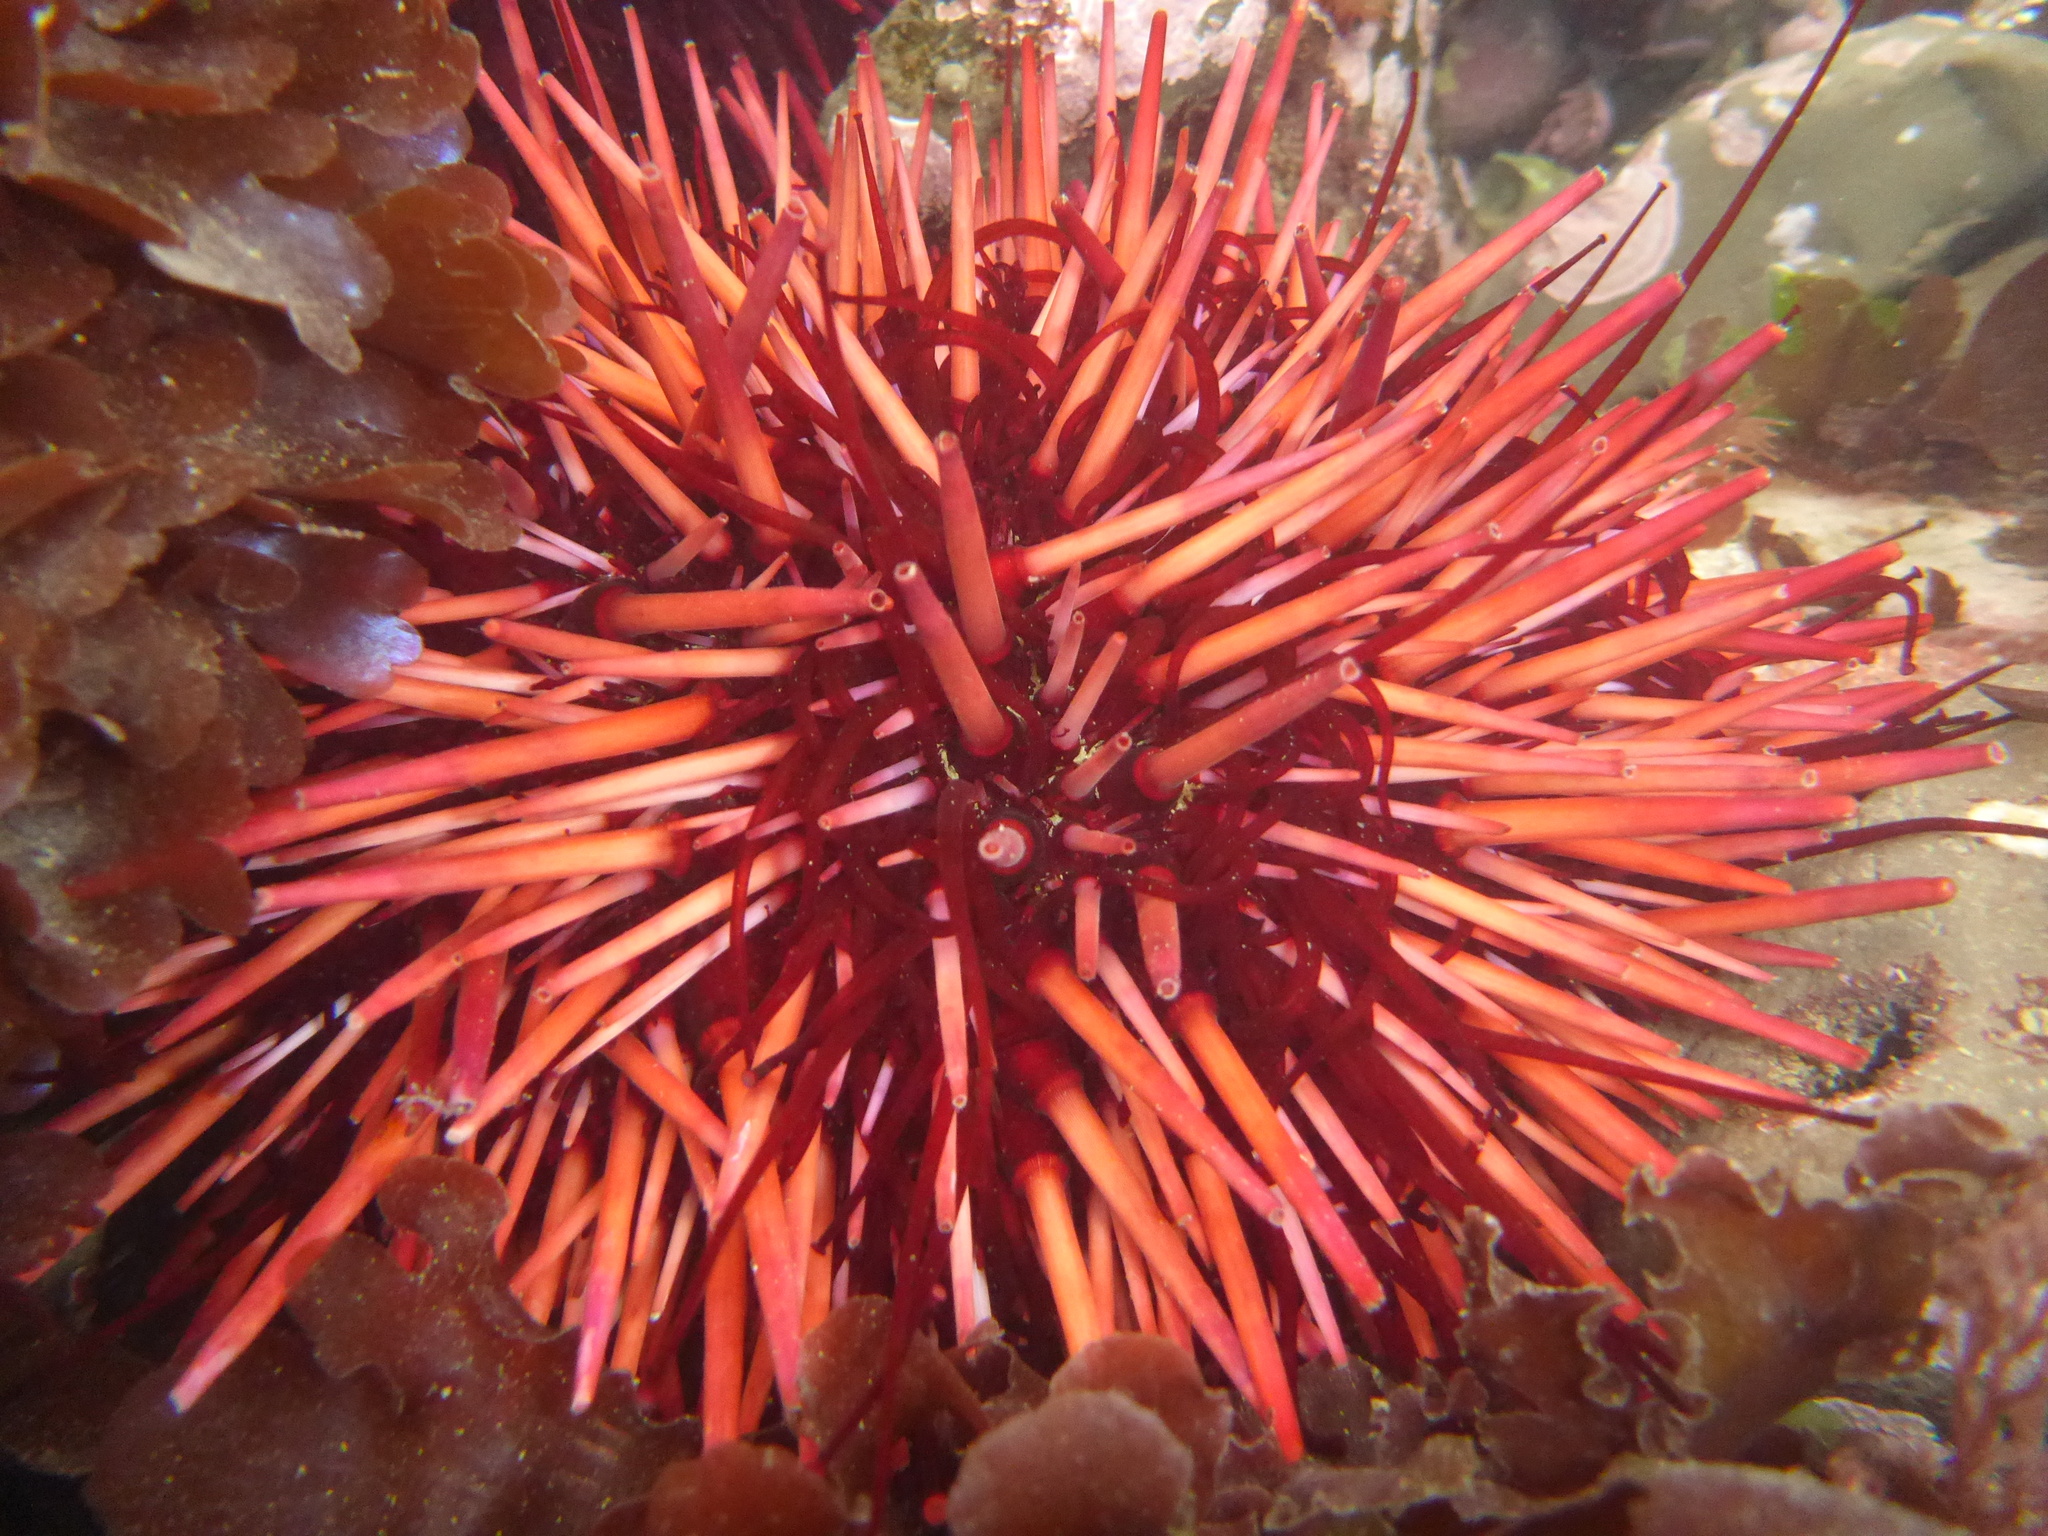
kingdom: Animalia
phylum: Echinodermata
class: Echinoidea
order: Camarodonta
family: Strongylocentrotidae
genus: Mesocentrotus
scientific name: Mesocentrotus franciscanus
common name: Red sea urchin
